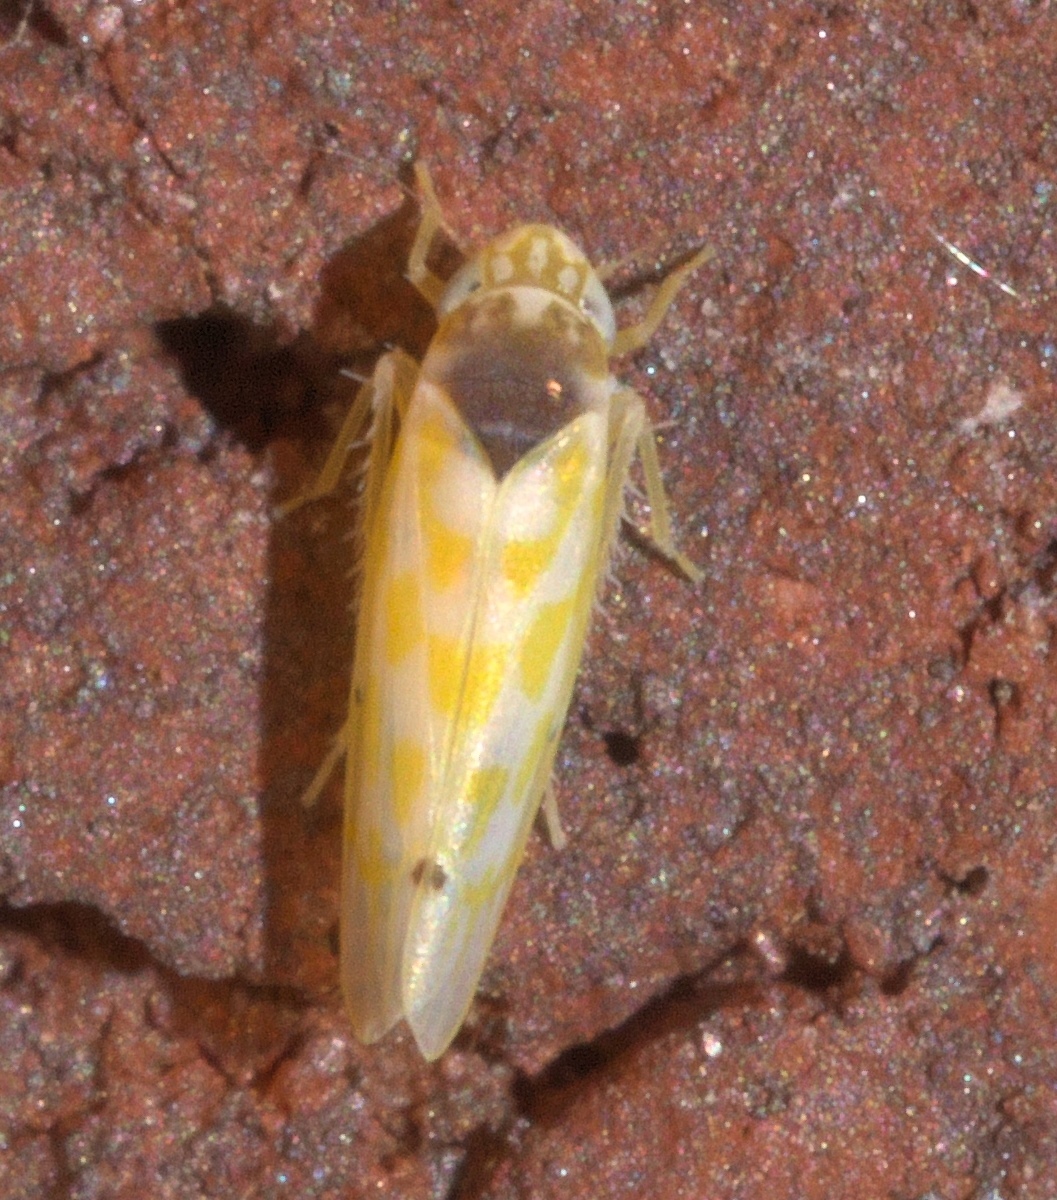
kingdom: Animalia
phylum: Arthropoda
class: Insecta
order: Hemiptera
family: Cicadellidae
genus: Eratoneura
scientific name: Eratoneura ardens
